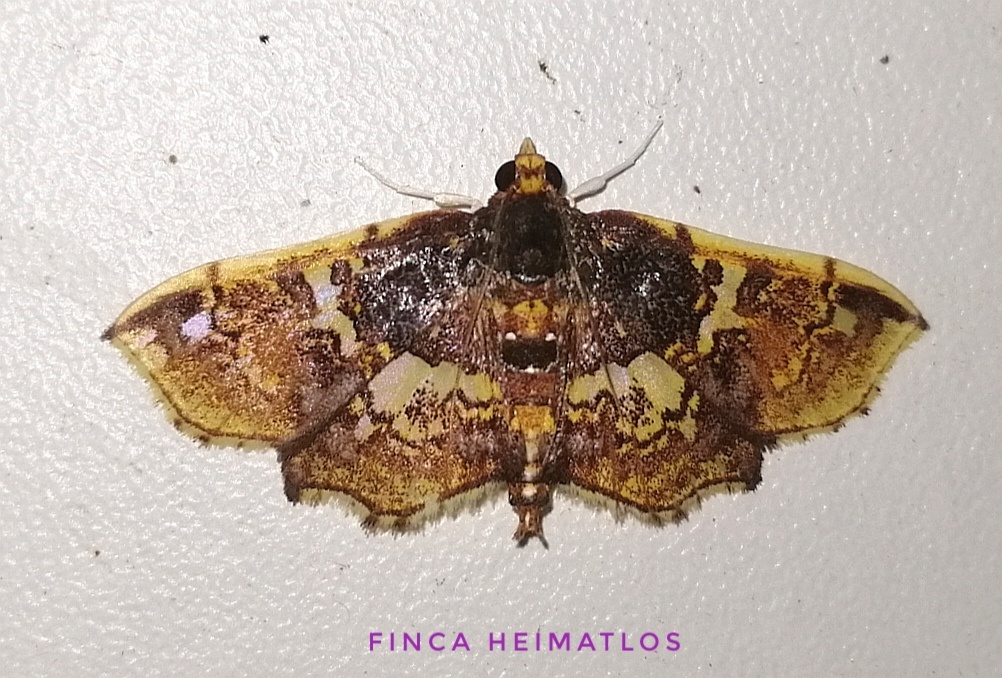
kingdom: Animalia
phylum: Arthropoda
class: Insecta
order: Lepidoptera
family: Crambidae
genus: Megastes
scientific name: Megastes erythrostolalis
